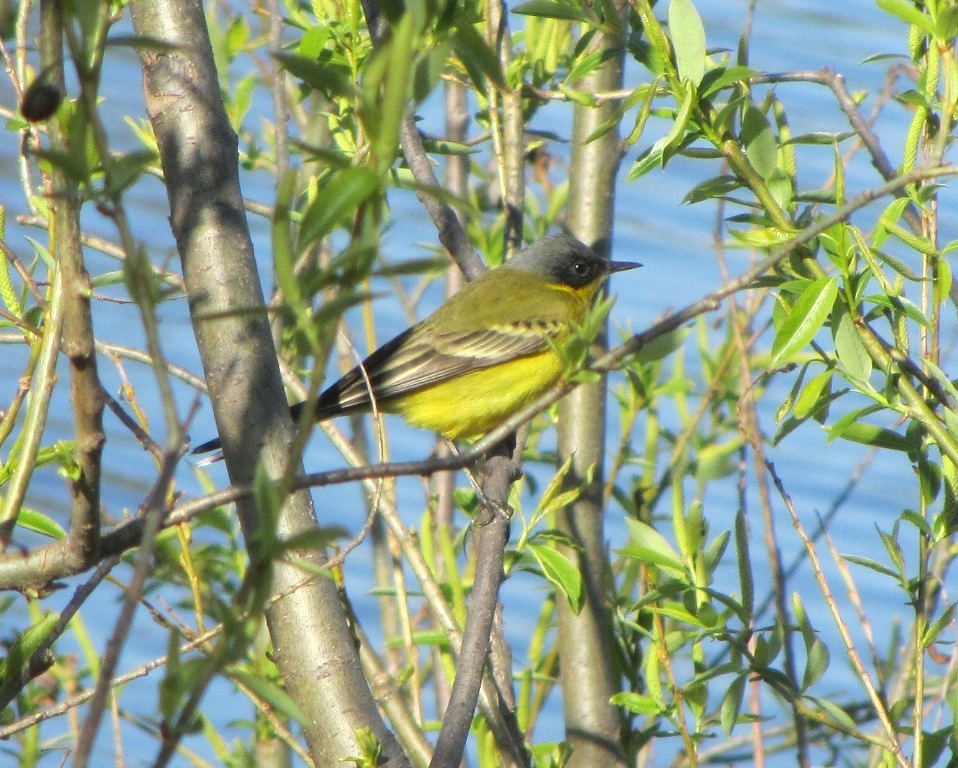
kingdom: Animalia
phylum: Chordata
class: Aves
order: Passeriformes
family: Motacillidae
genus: Motacilla
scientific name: Motacilla tschutschensis
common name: Eastern yellow wagtail
